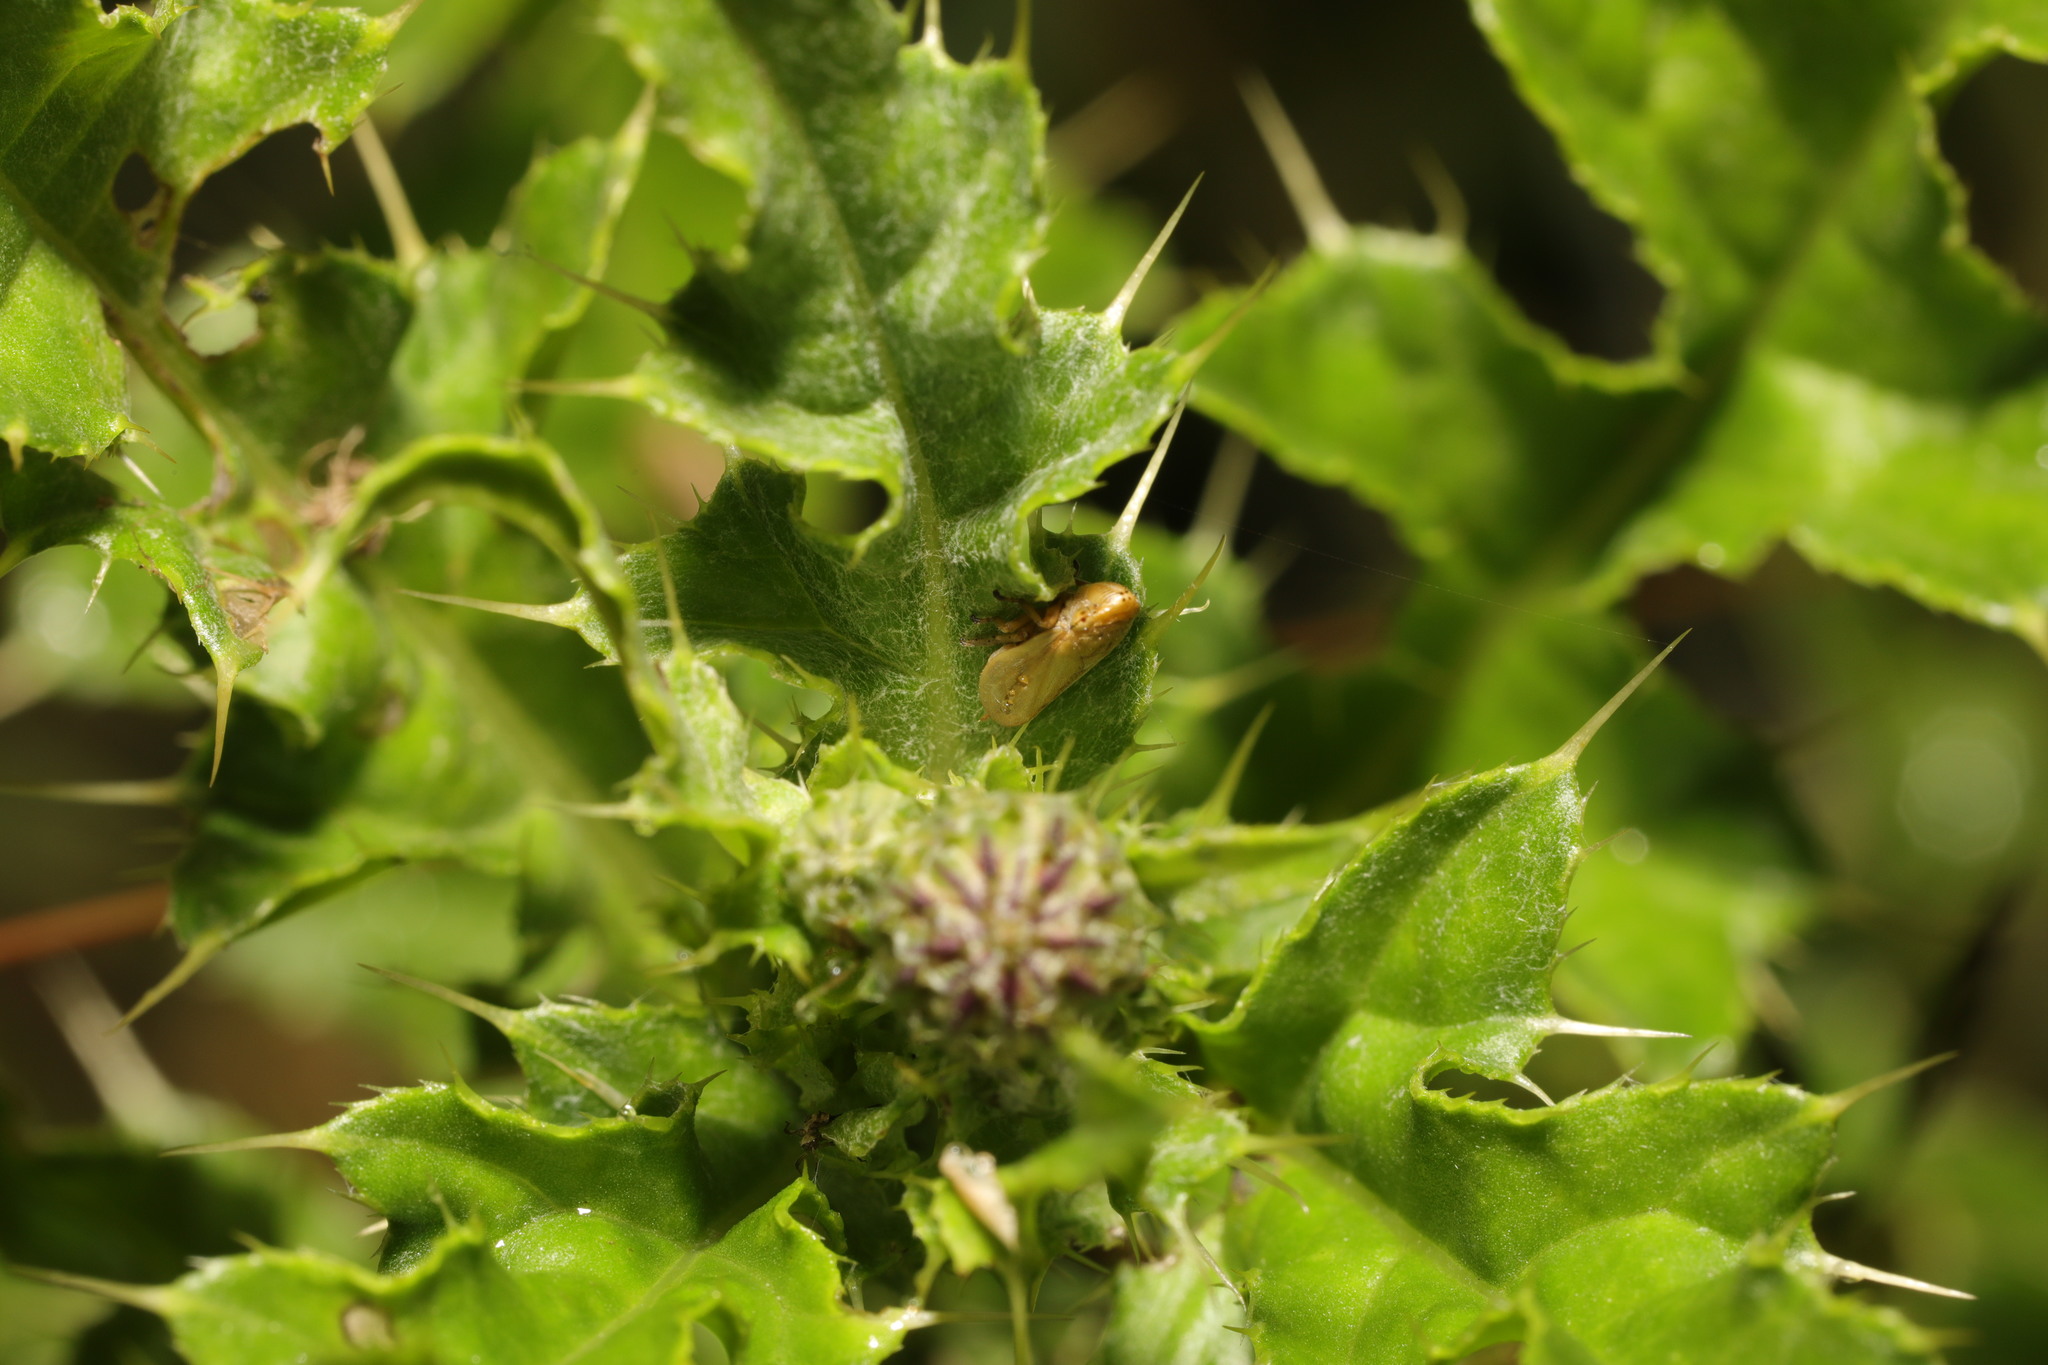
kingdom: Animalia
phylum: Arthropoda
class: Insecta
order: Hemiptera
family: Aphrophoridae
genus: Philaenus
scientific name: Philaenus spumarius
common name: Meadow spittlebug
